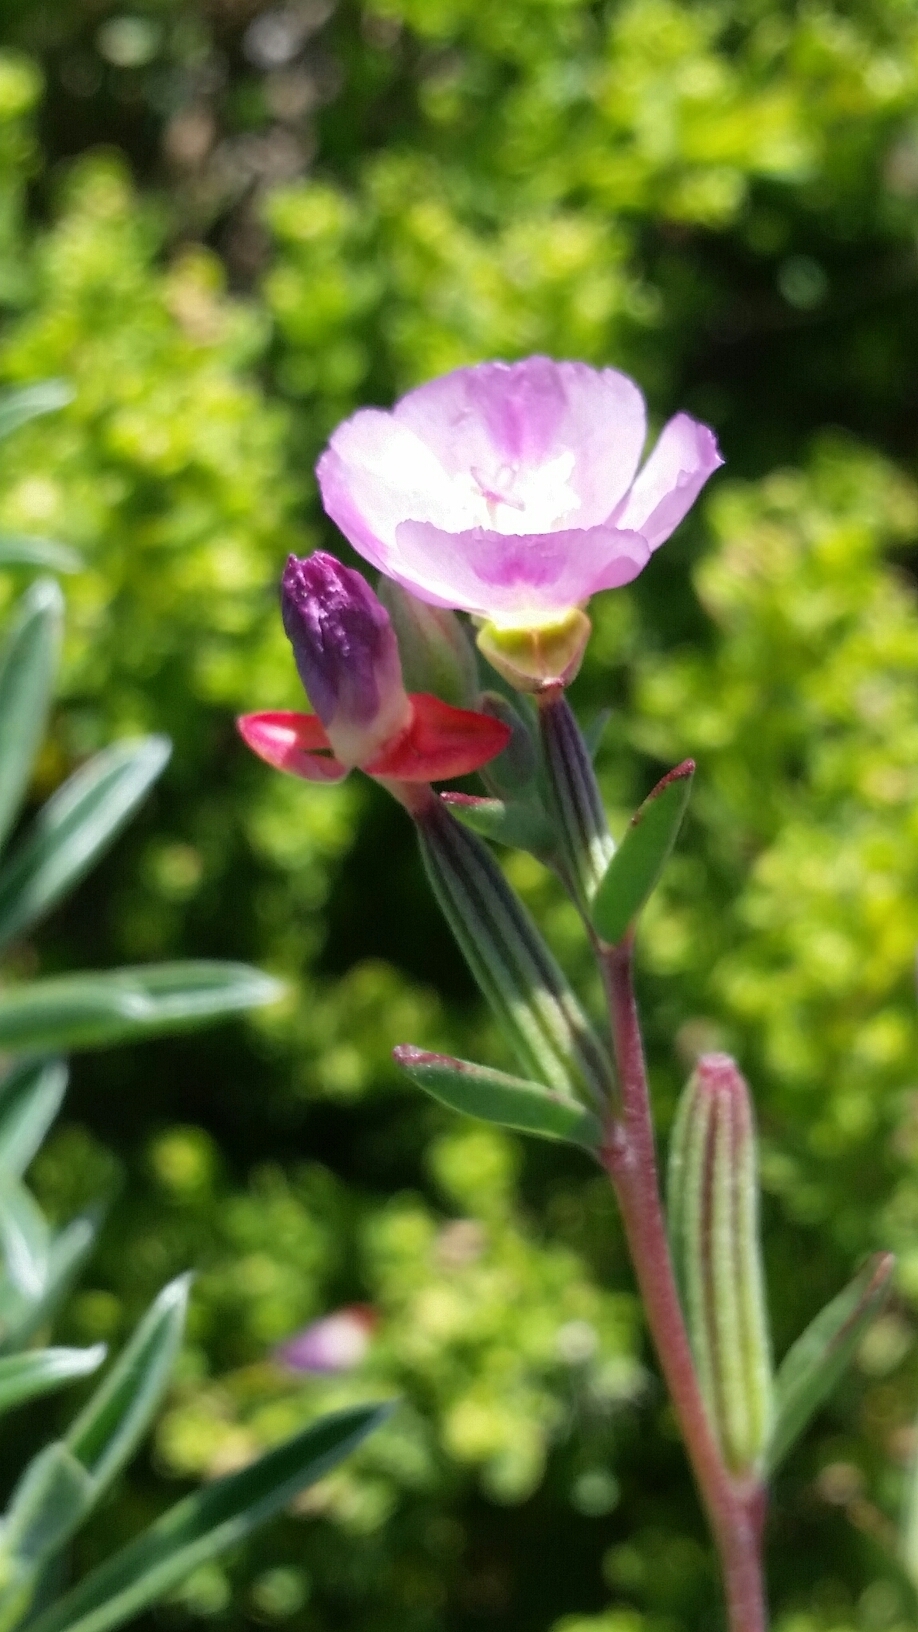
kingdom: Plantae
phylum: Tracheophyta
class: Magnoliopsida
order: Myrtales
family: Onagraceae
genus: Clarkia
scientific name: Clarkia davyi
